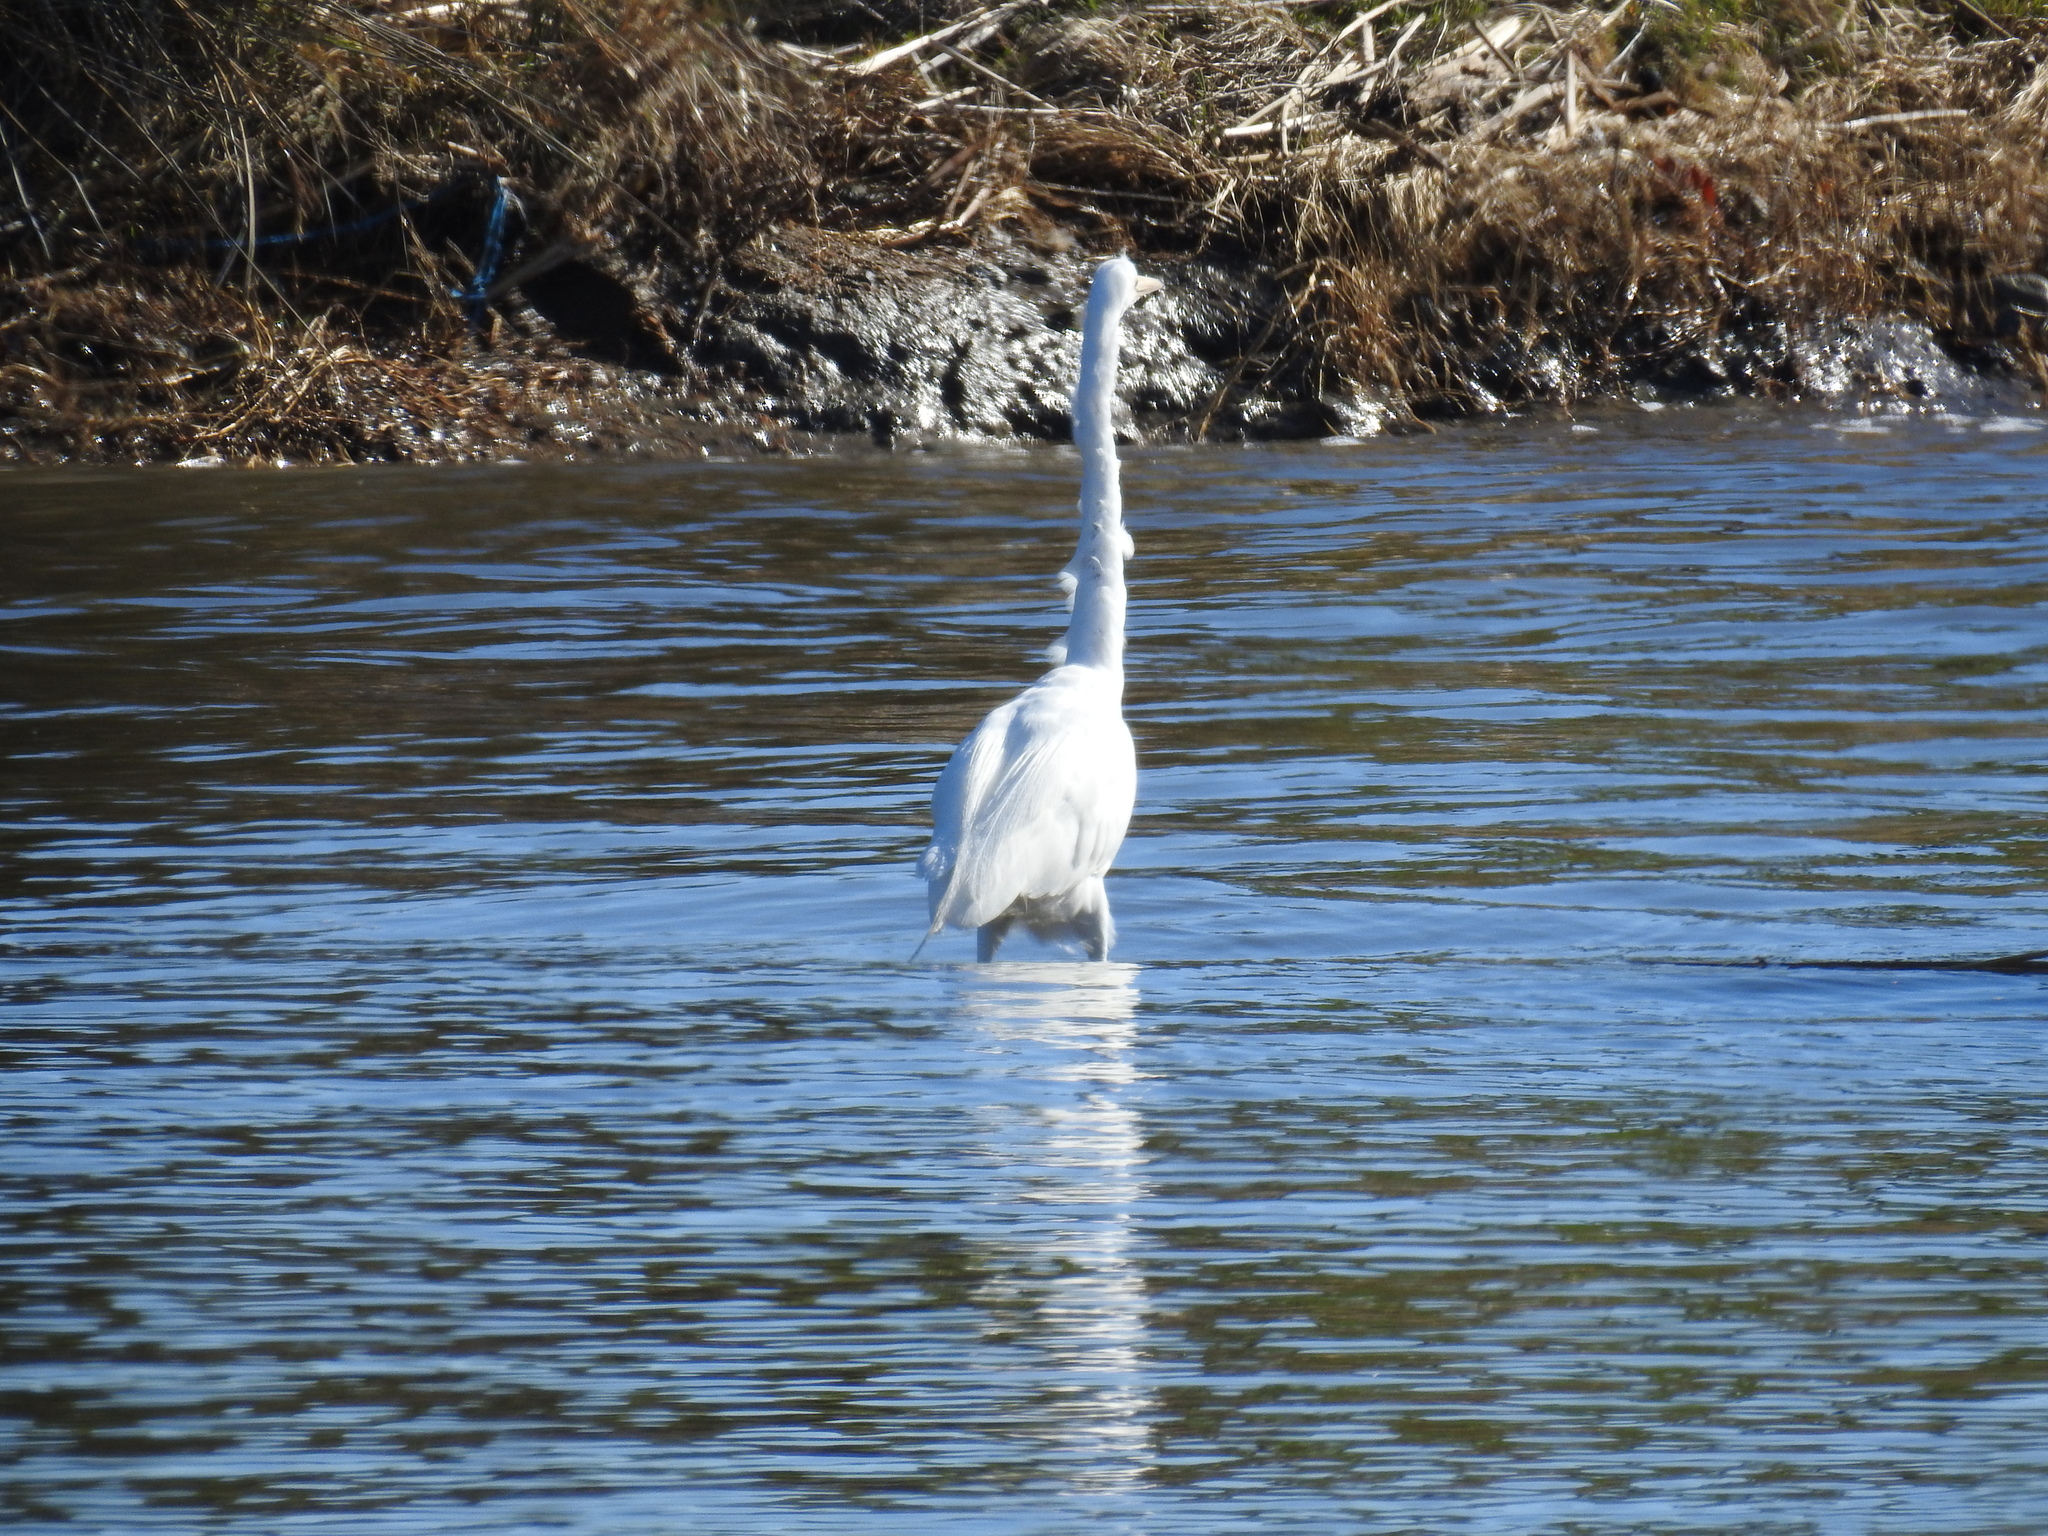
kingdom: Animalia
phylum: Chordata
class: Aves
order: Pelecaniformes
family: Ardeidae
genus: Ardea
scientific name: Ardea alba
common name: Great egret
